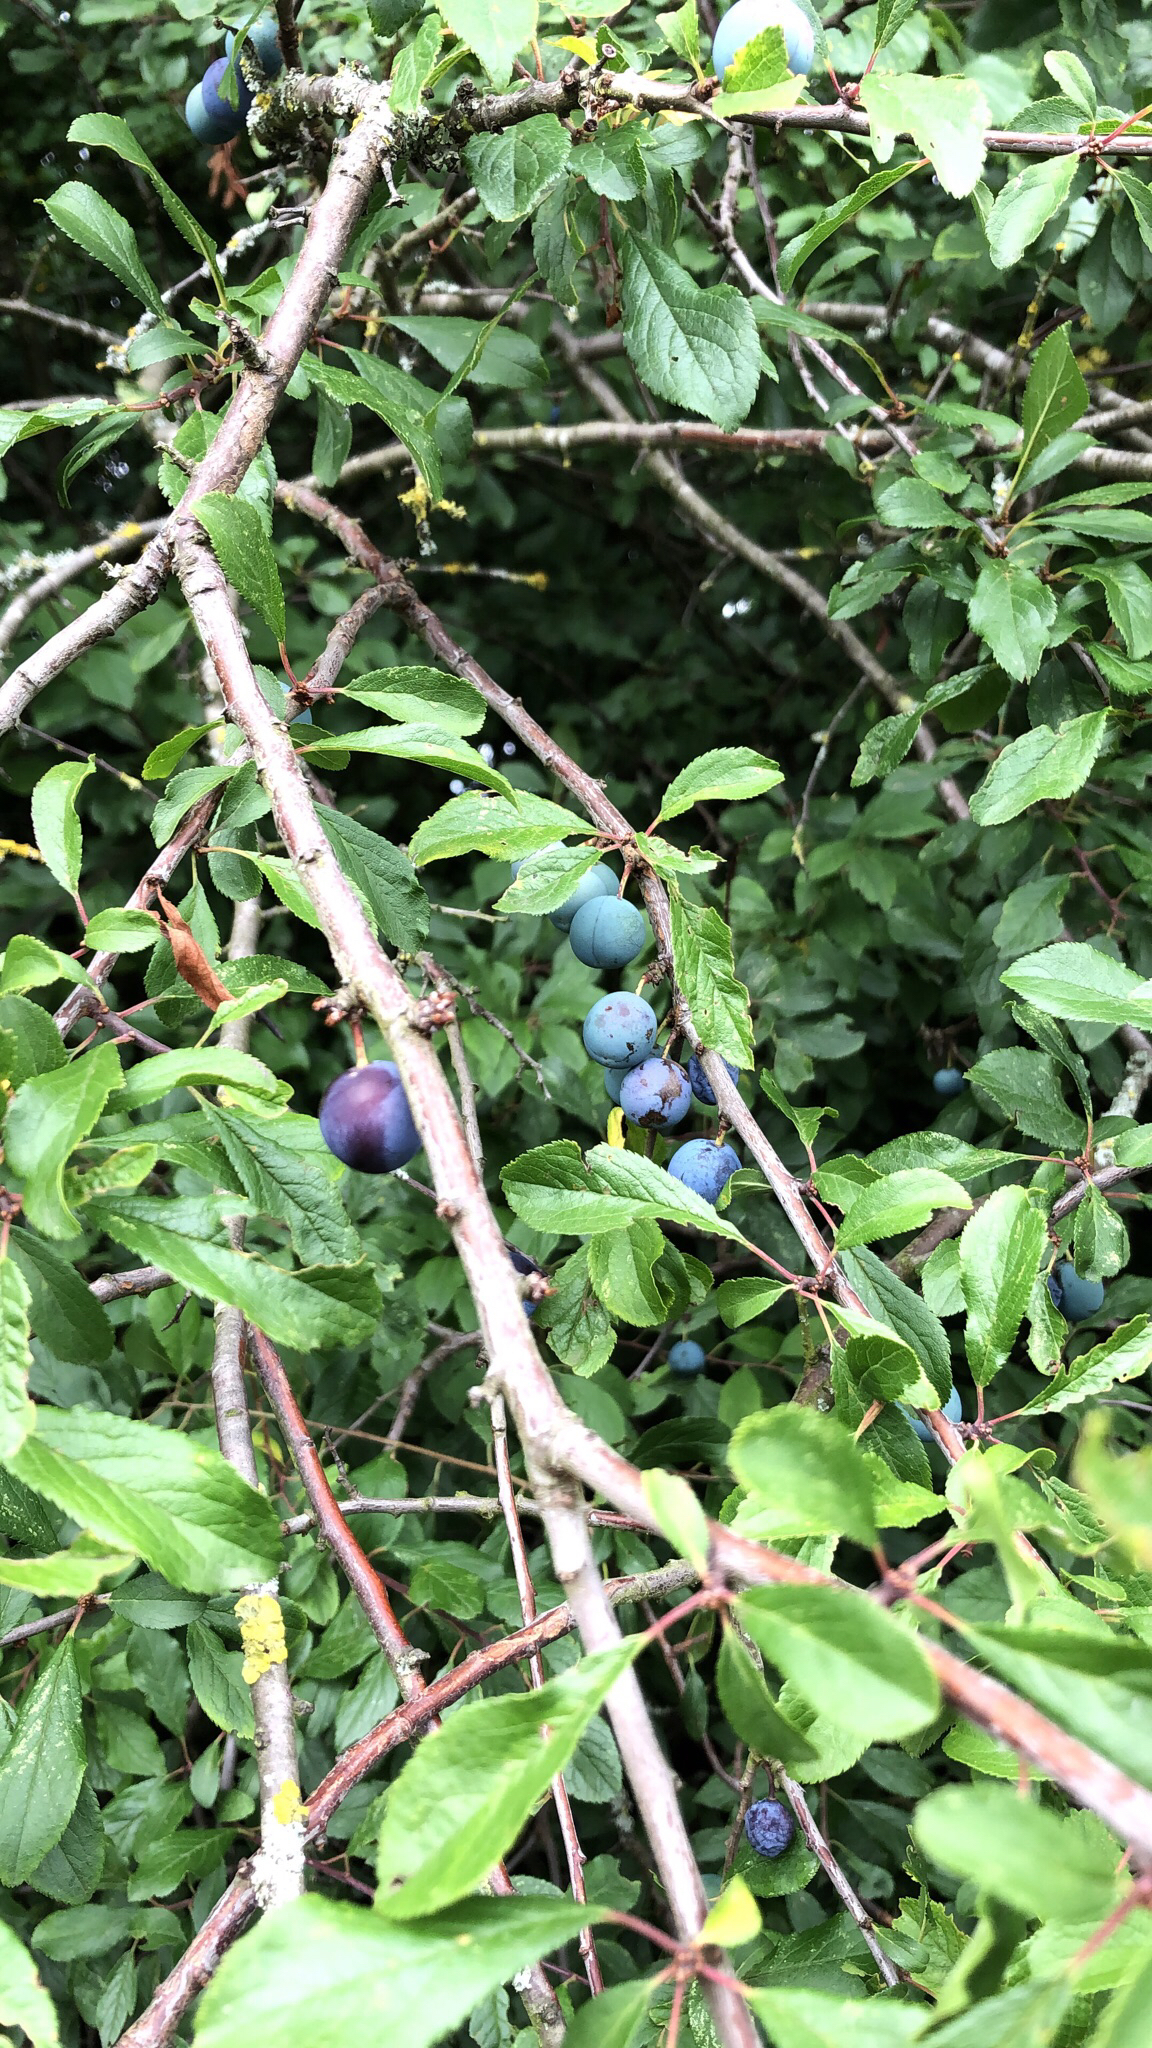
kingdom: Plantae
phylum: Tracheophyta
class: Magnoliopsida
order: Rosales
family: Rosaceae
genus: Prunus
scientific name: Prunus spinosa
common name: Blackthorn
